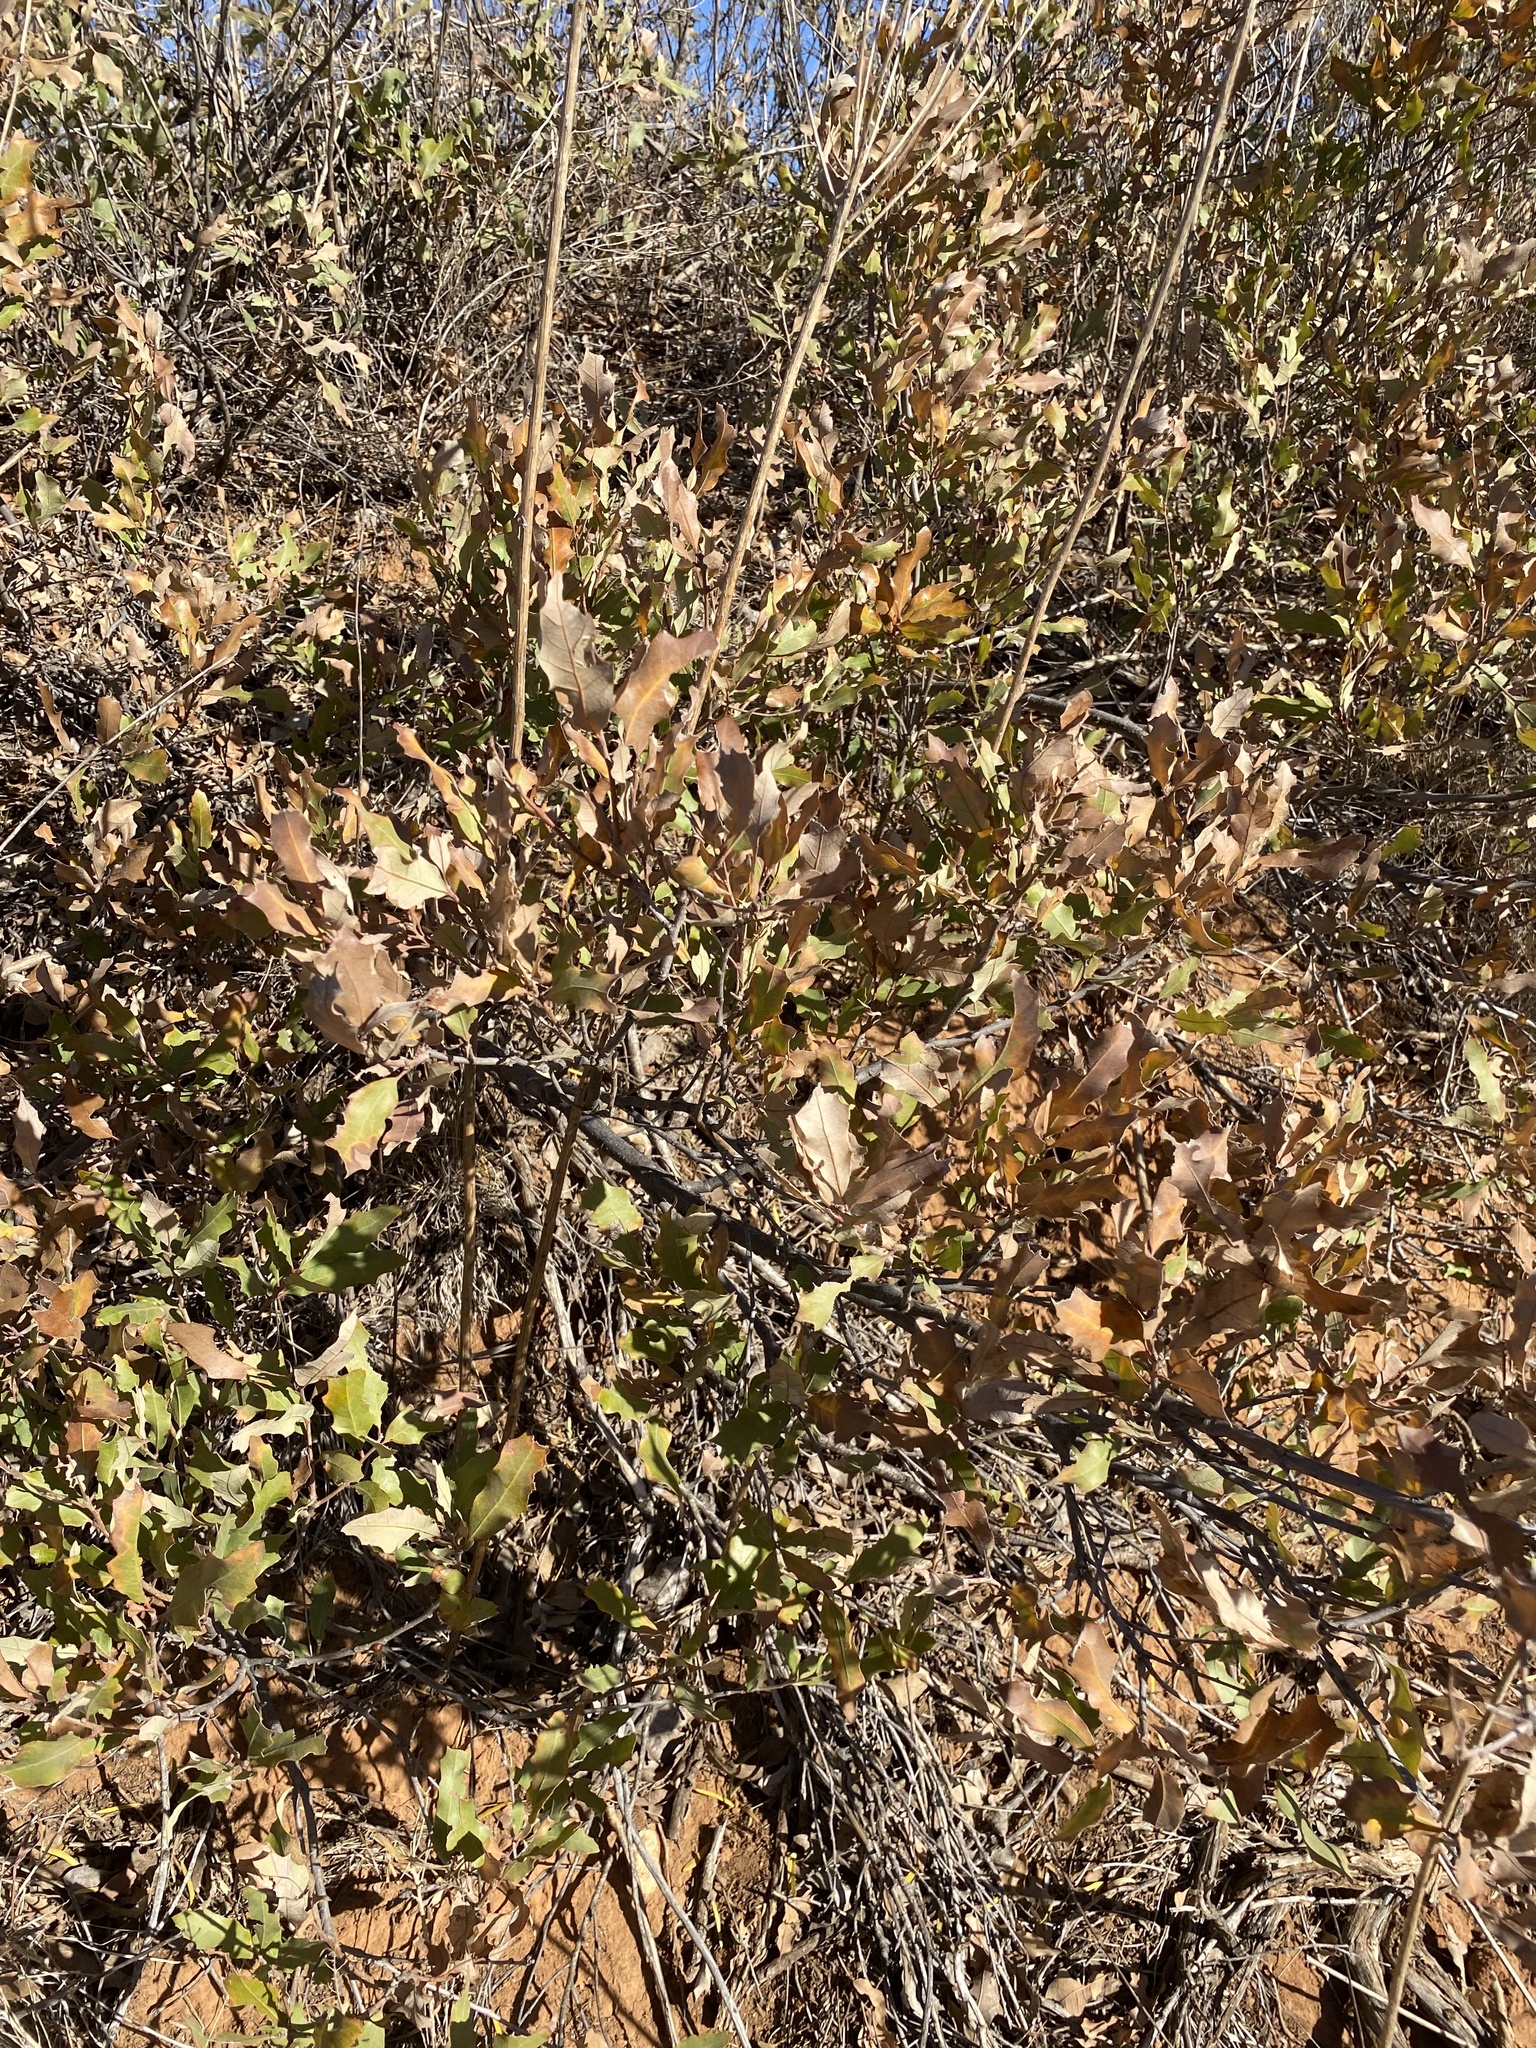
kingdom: Plantae
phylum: Tracheophyta
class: Magnoliopsida
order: Fagales
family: Fagaceae
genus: Quercus
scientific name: Quercus havardii
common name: Shinnery oak
